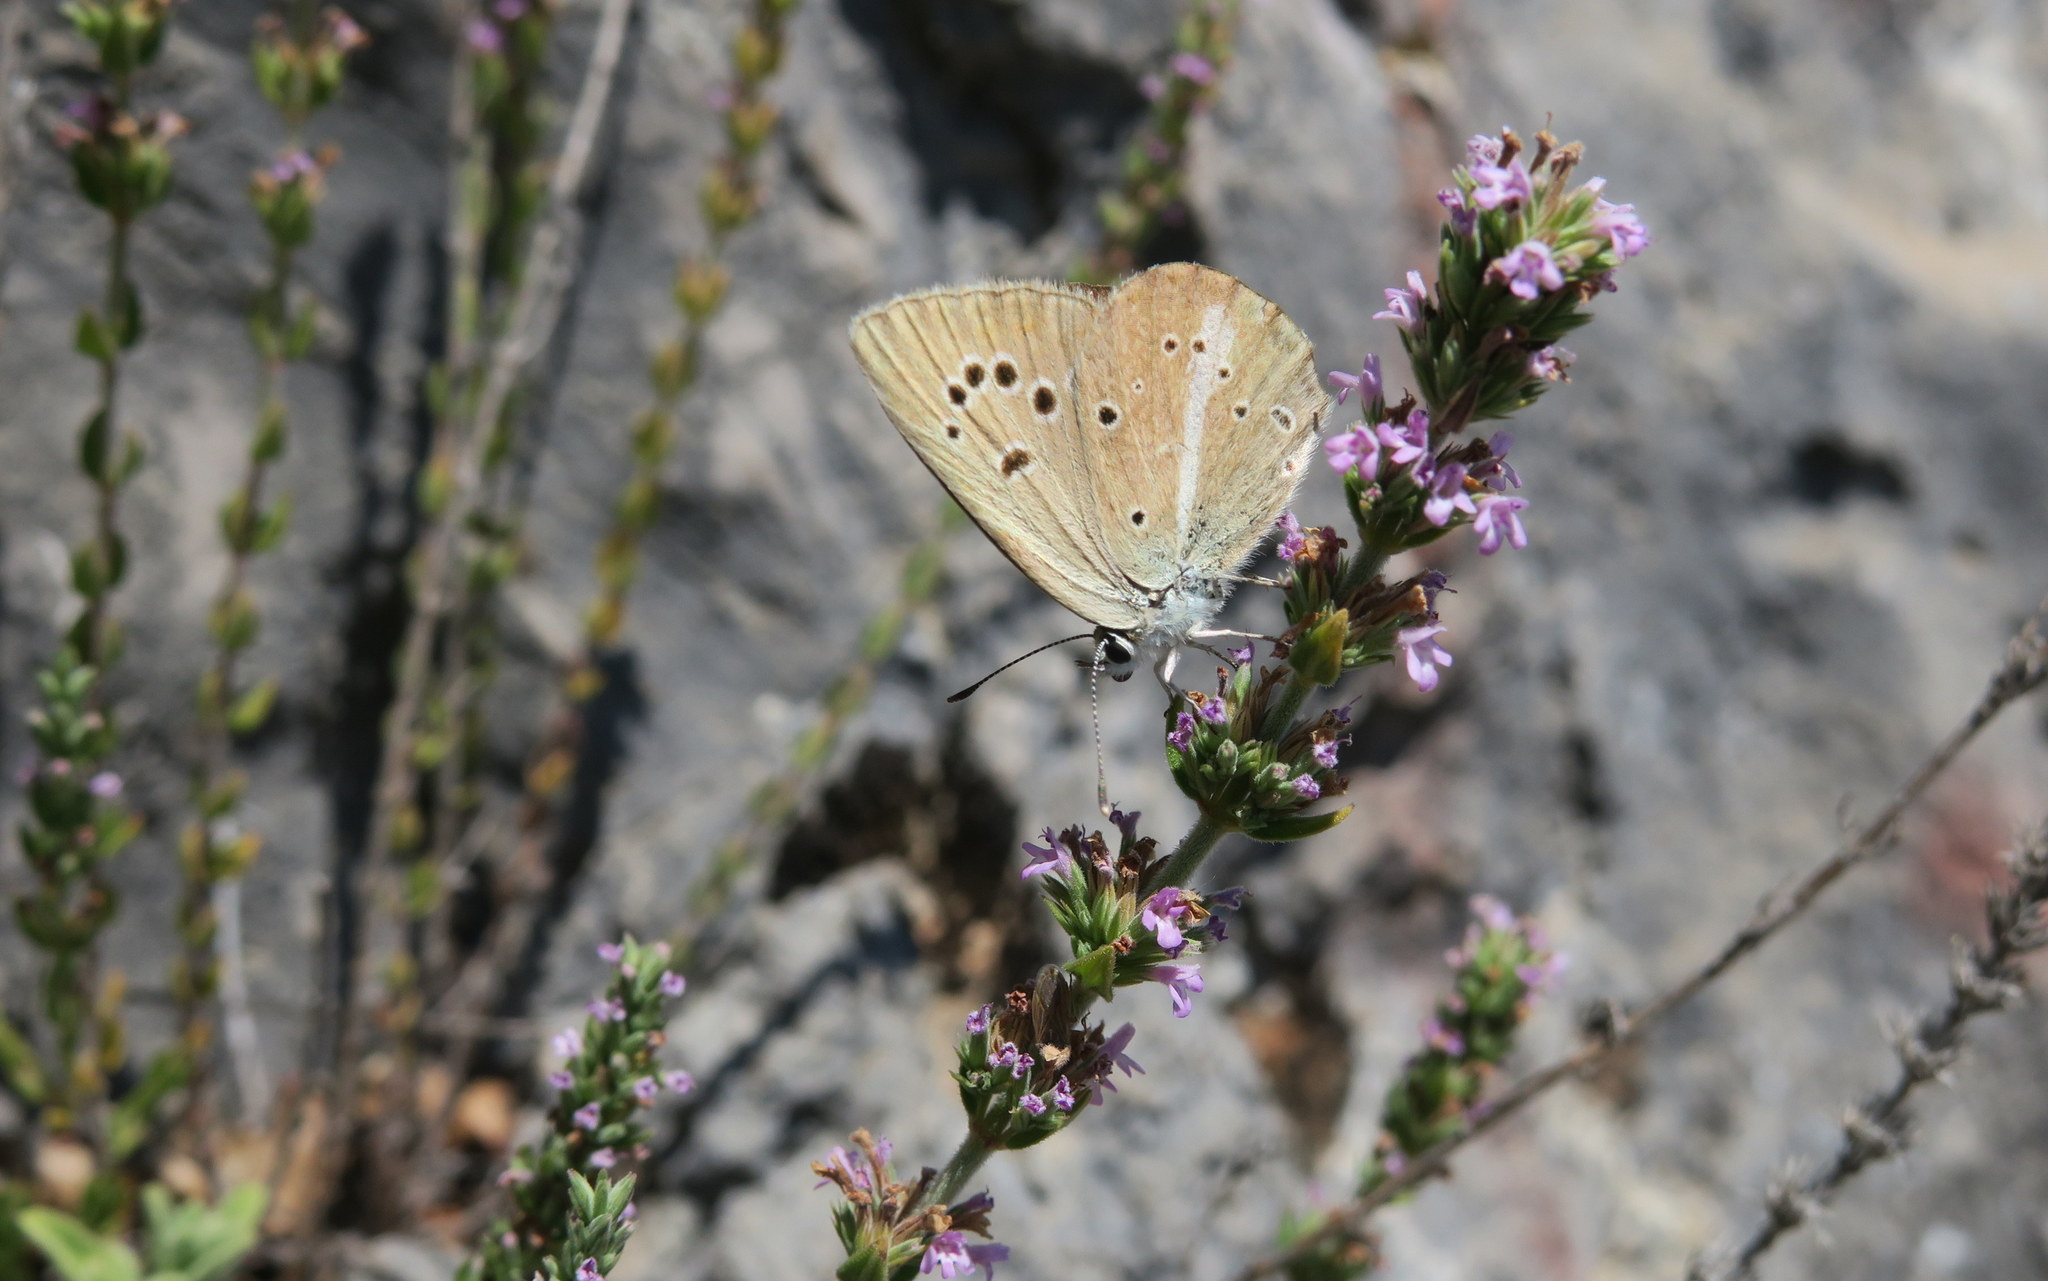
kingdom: Animalia
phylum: Arthropoda
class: Insecta
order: Lepidoptera
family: Lycaenidae
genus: Polyommatus
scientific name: Polyommatus ripartii
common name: Ripart's anomalous blue
